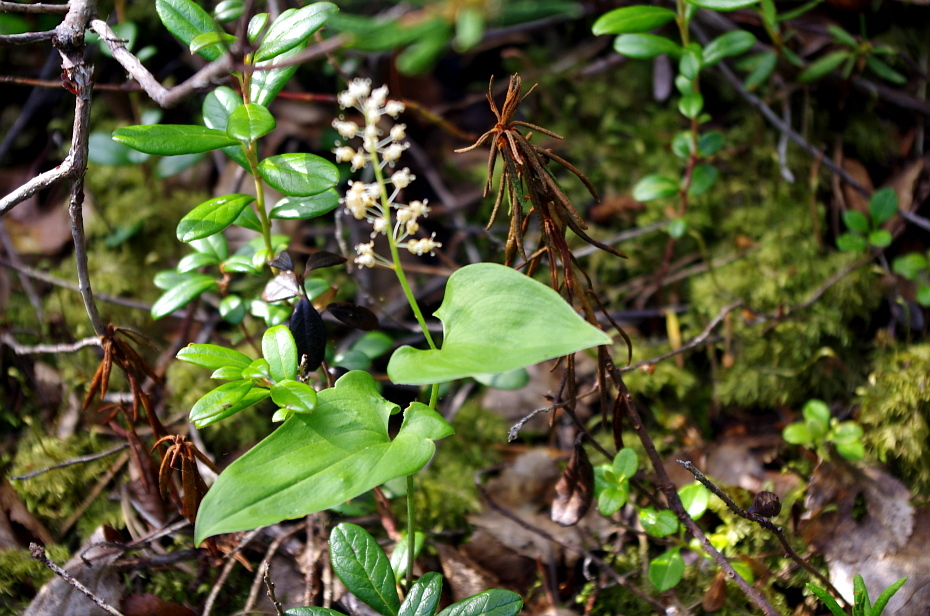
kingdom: Plantae
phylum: Tracheophyta
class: Liliopsida
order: Asparagales
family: Asparagaceae
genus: Maianthemum
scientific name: Maianthemum bifolium
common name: May lily
